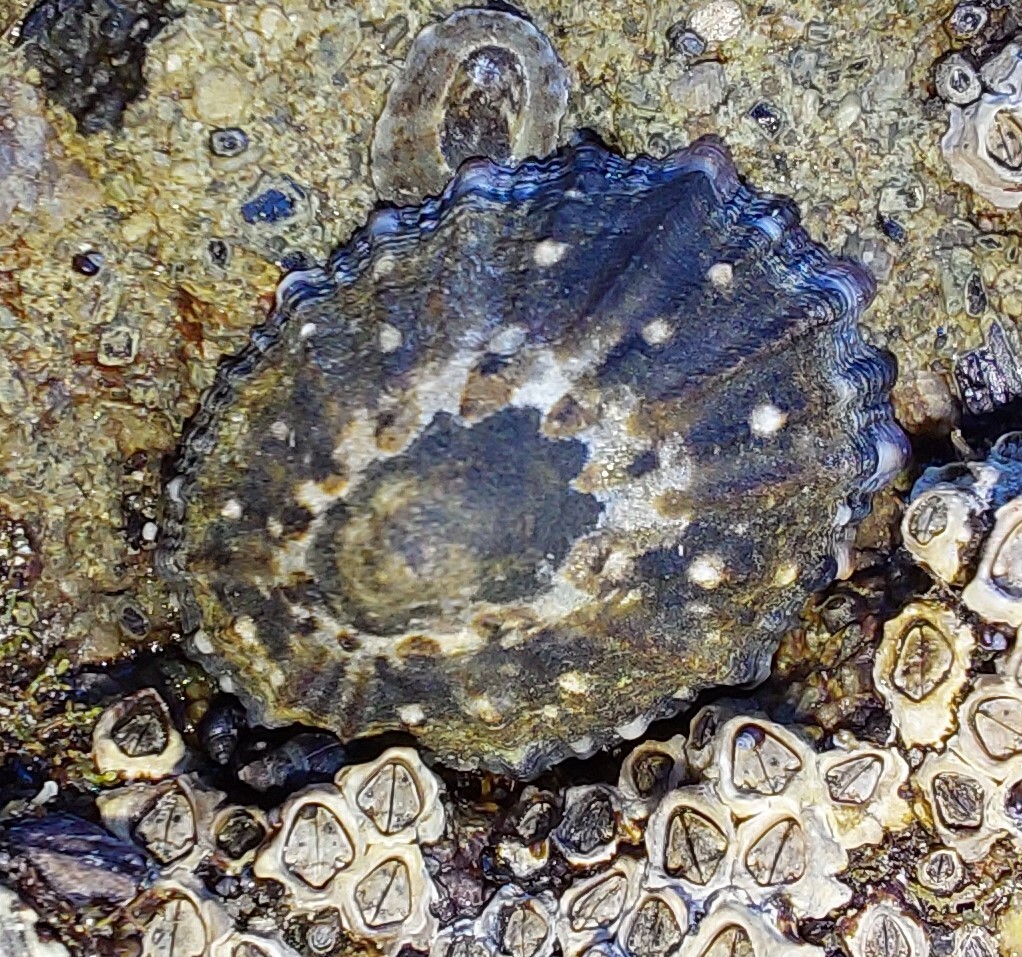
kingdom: Animalia
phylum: Mollusca
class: Gastropoda
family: Nacellidae
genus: Cellana
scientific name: Cellana ornata
